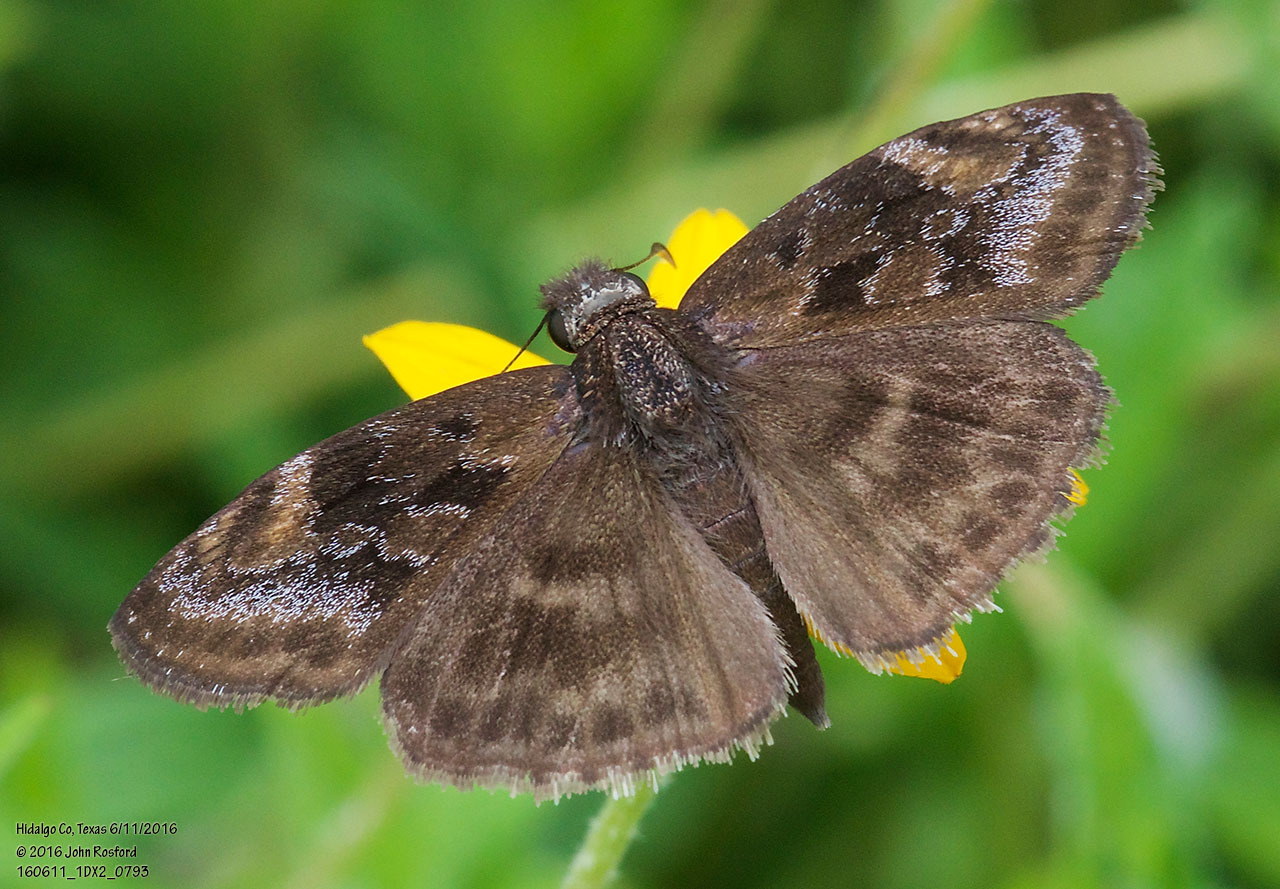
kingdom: Animalia
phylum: Arthropoda
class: Insecta
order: Lepidoptera
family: Hesperiidae
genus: Gesta
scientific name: Gesta gesta
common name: Gesta duskywing
